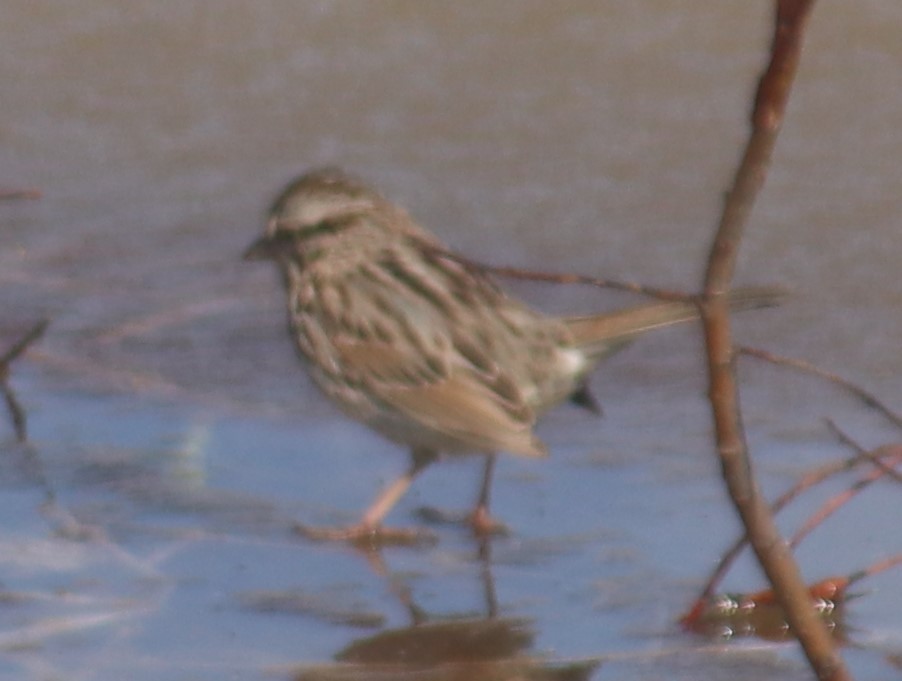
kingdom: Animalia
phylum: Chordata
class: Aves
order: Passeriformes
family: Passerellidae
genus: Melospiza
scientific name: Melospiza melodia
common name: Song sparrow
